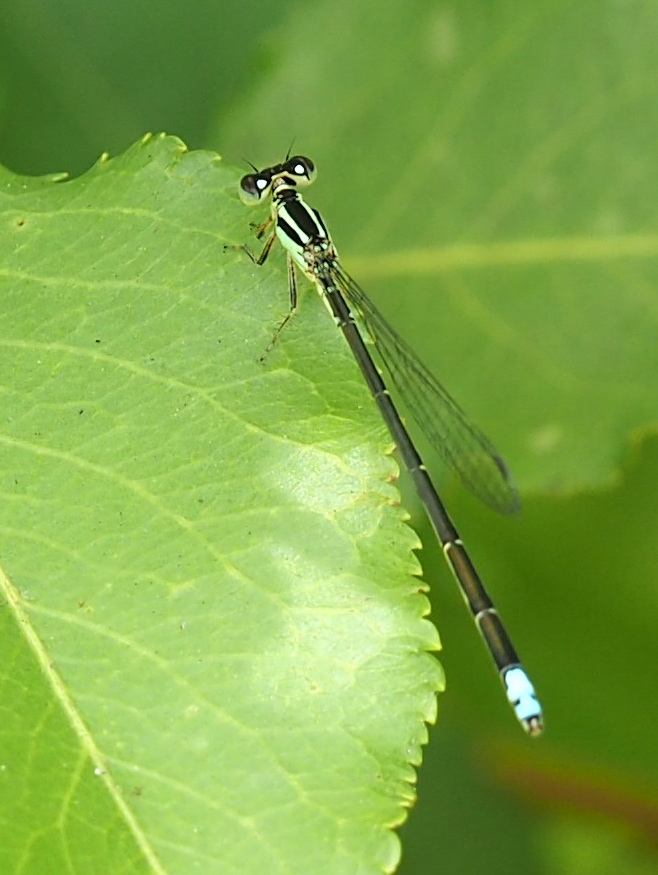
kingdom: Animalia
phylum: Arthropoda
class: Insecta
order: Odonata
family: Coenagrionidae
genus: Ischnura
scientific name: Ischnura verticalis
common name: Eastern forktail
